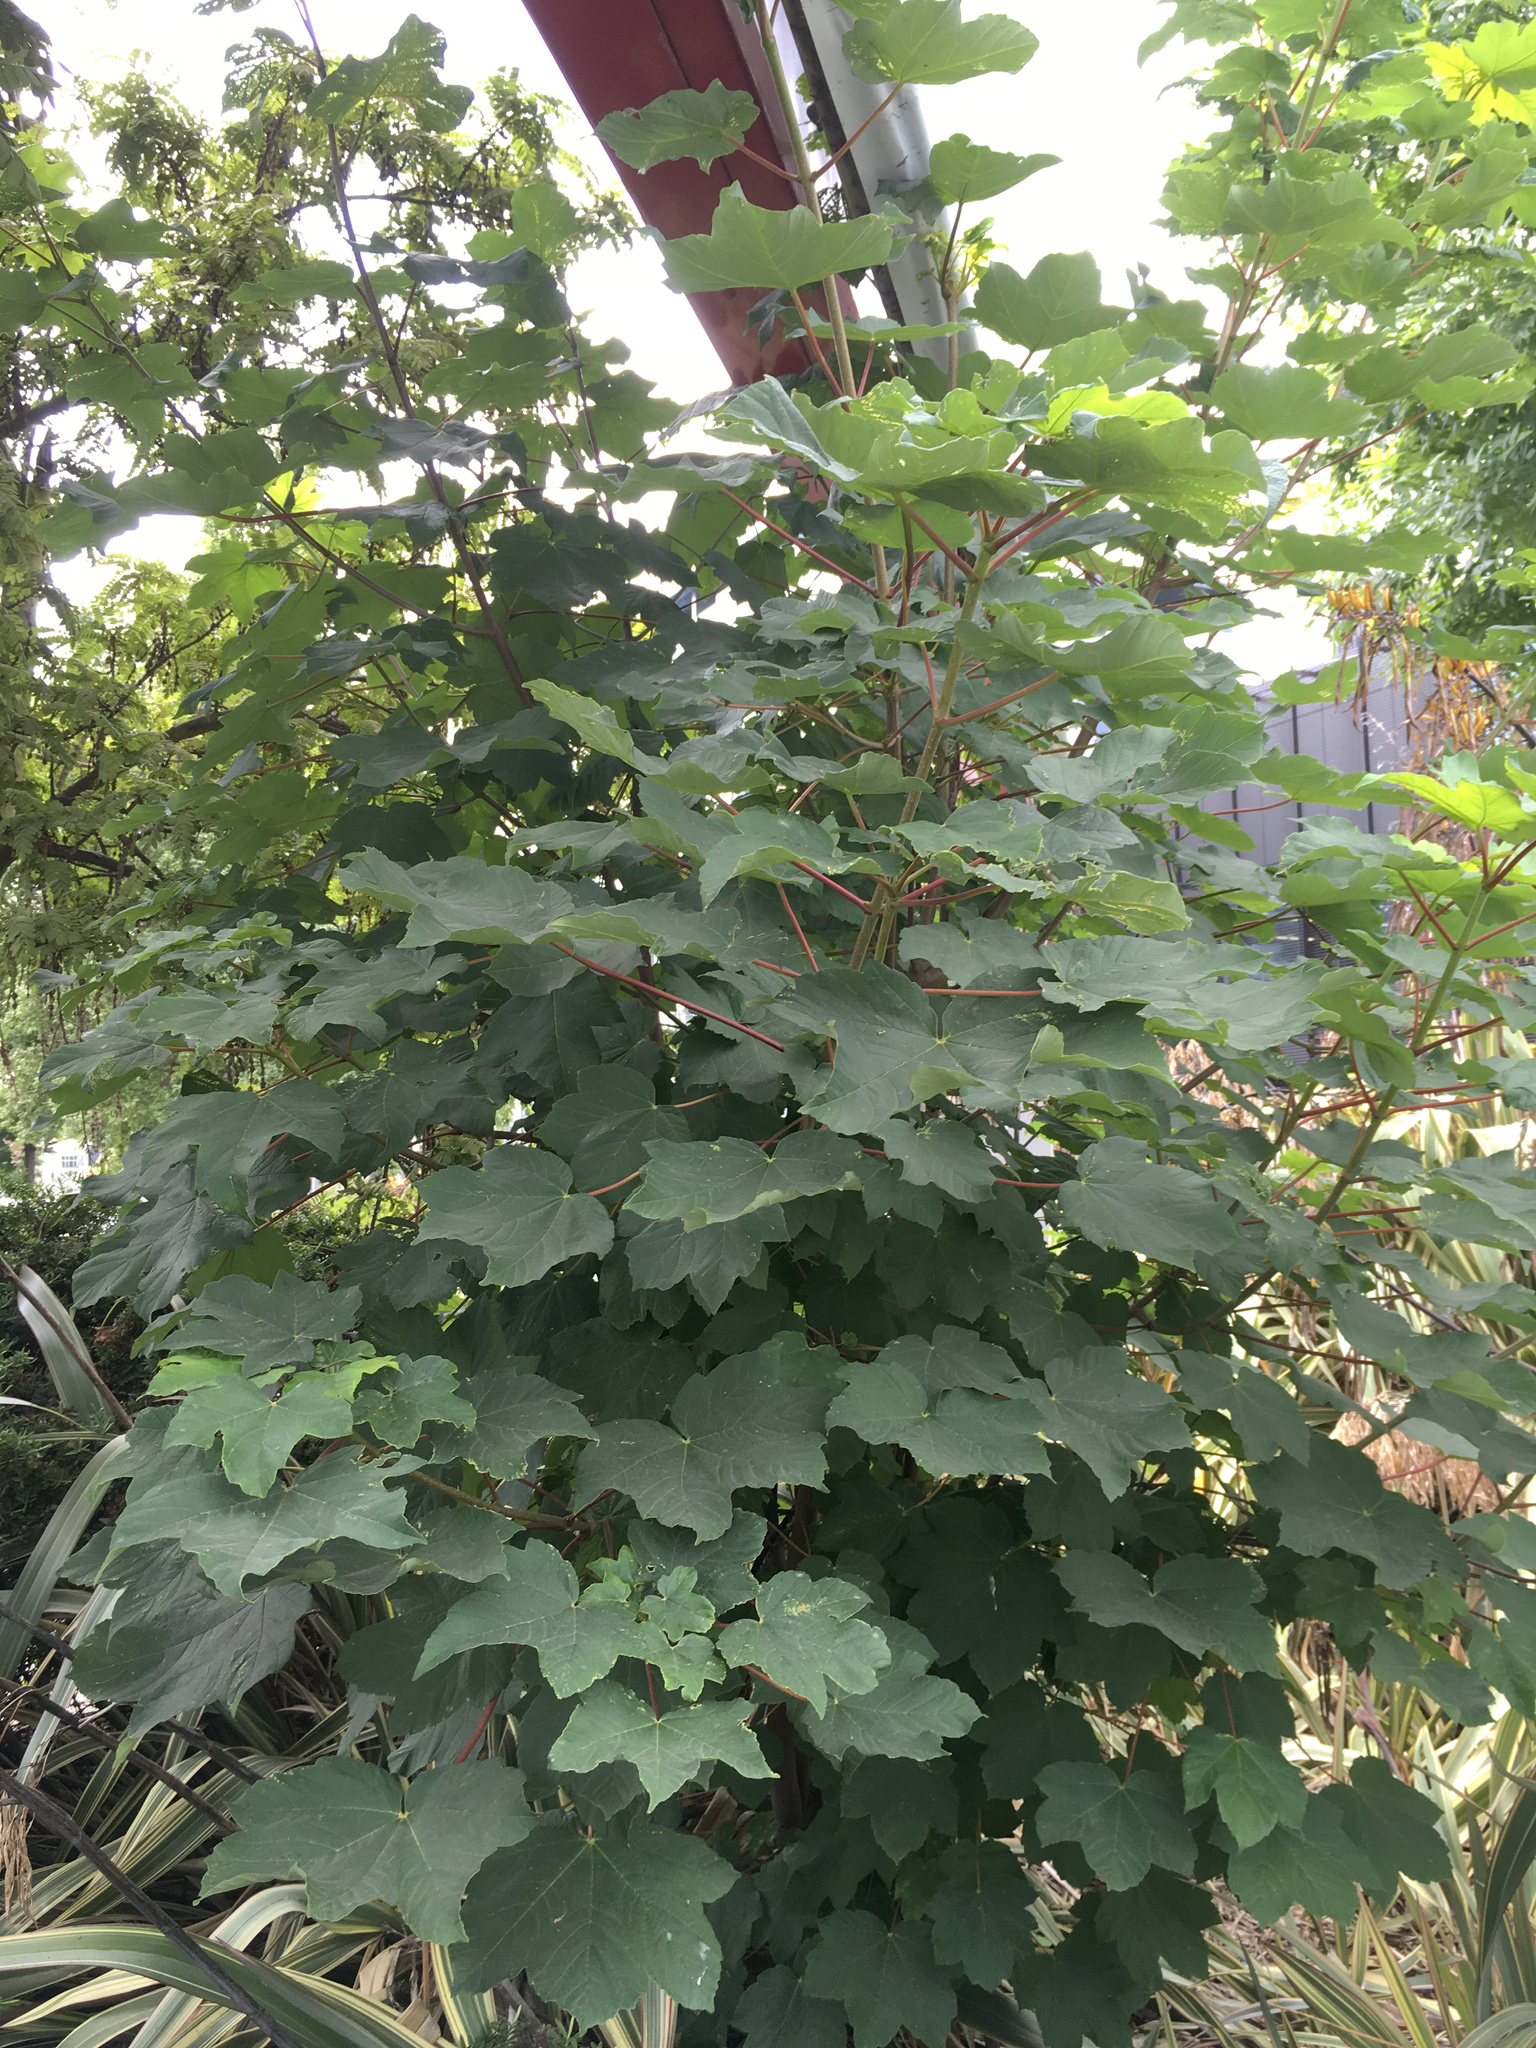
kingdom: Plantae
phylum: Tracheophyta
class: Magnoliopsida
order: Sapindales
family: Sapindaceae
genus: Acer
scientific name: Acer pseudoplatanus
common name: Sycamore
